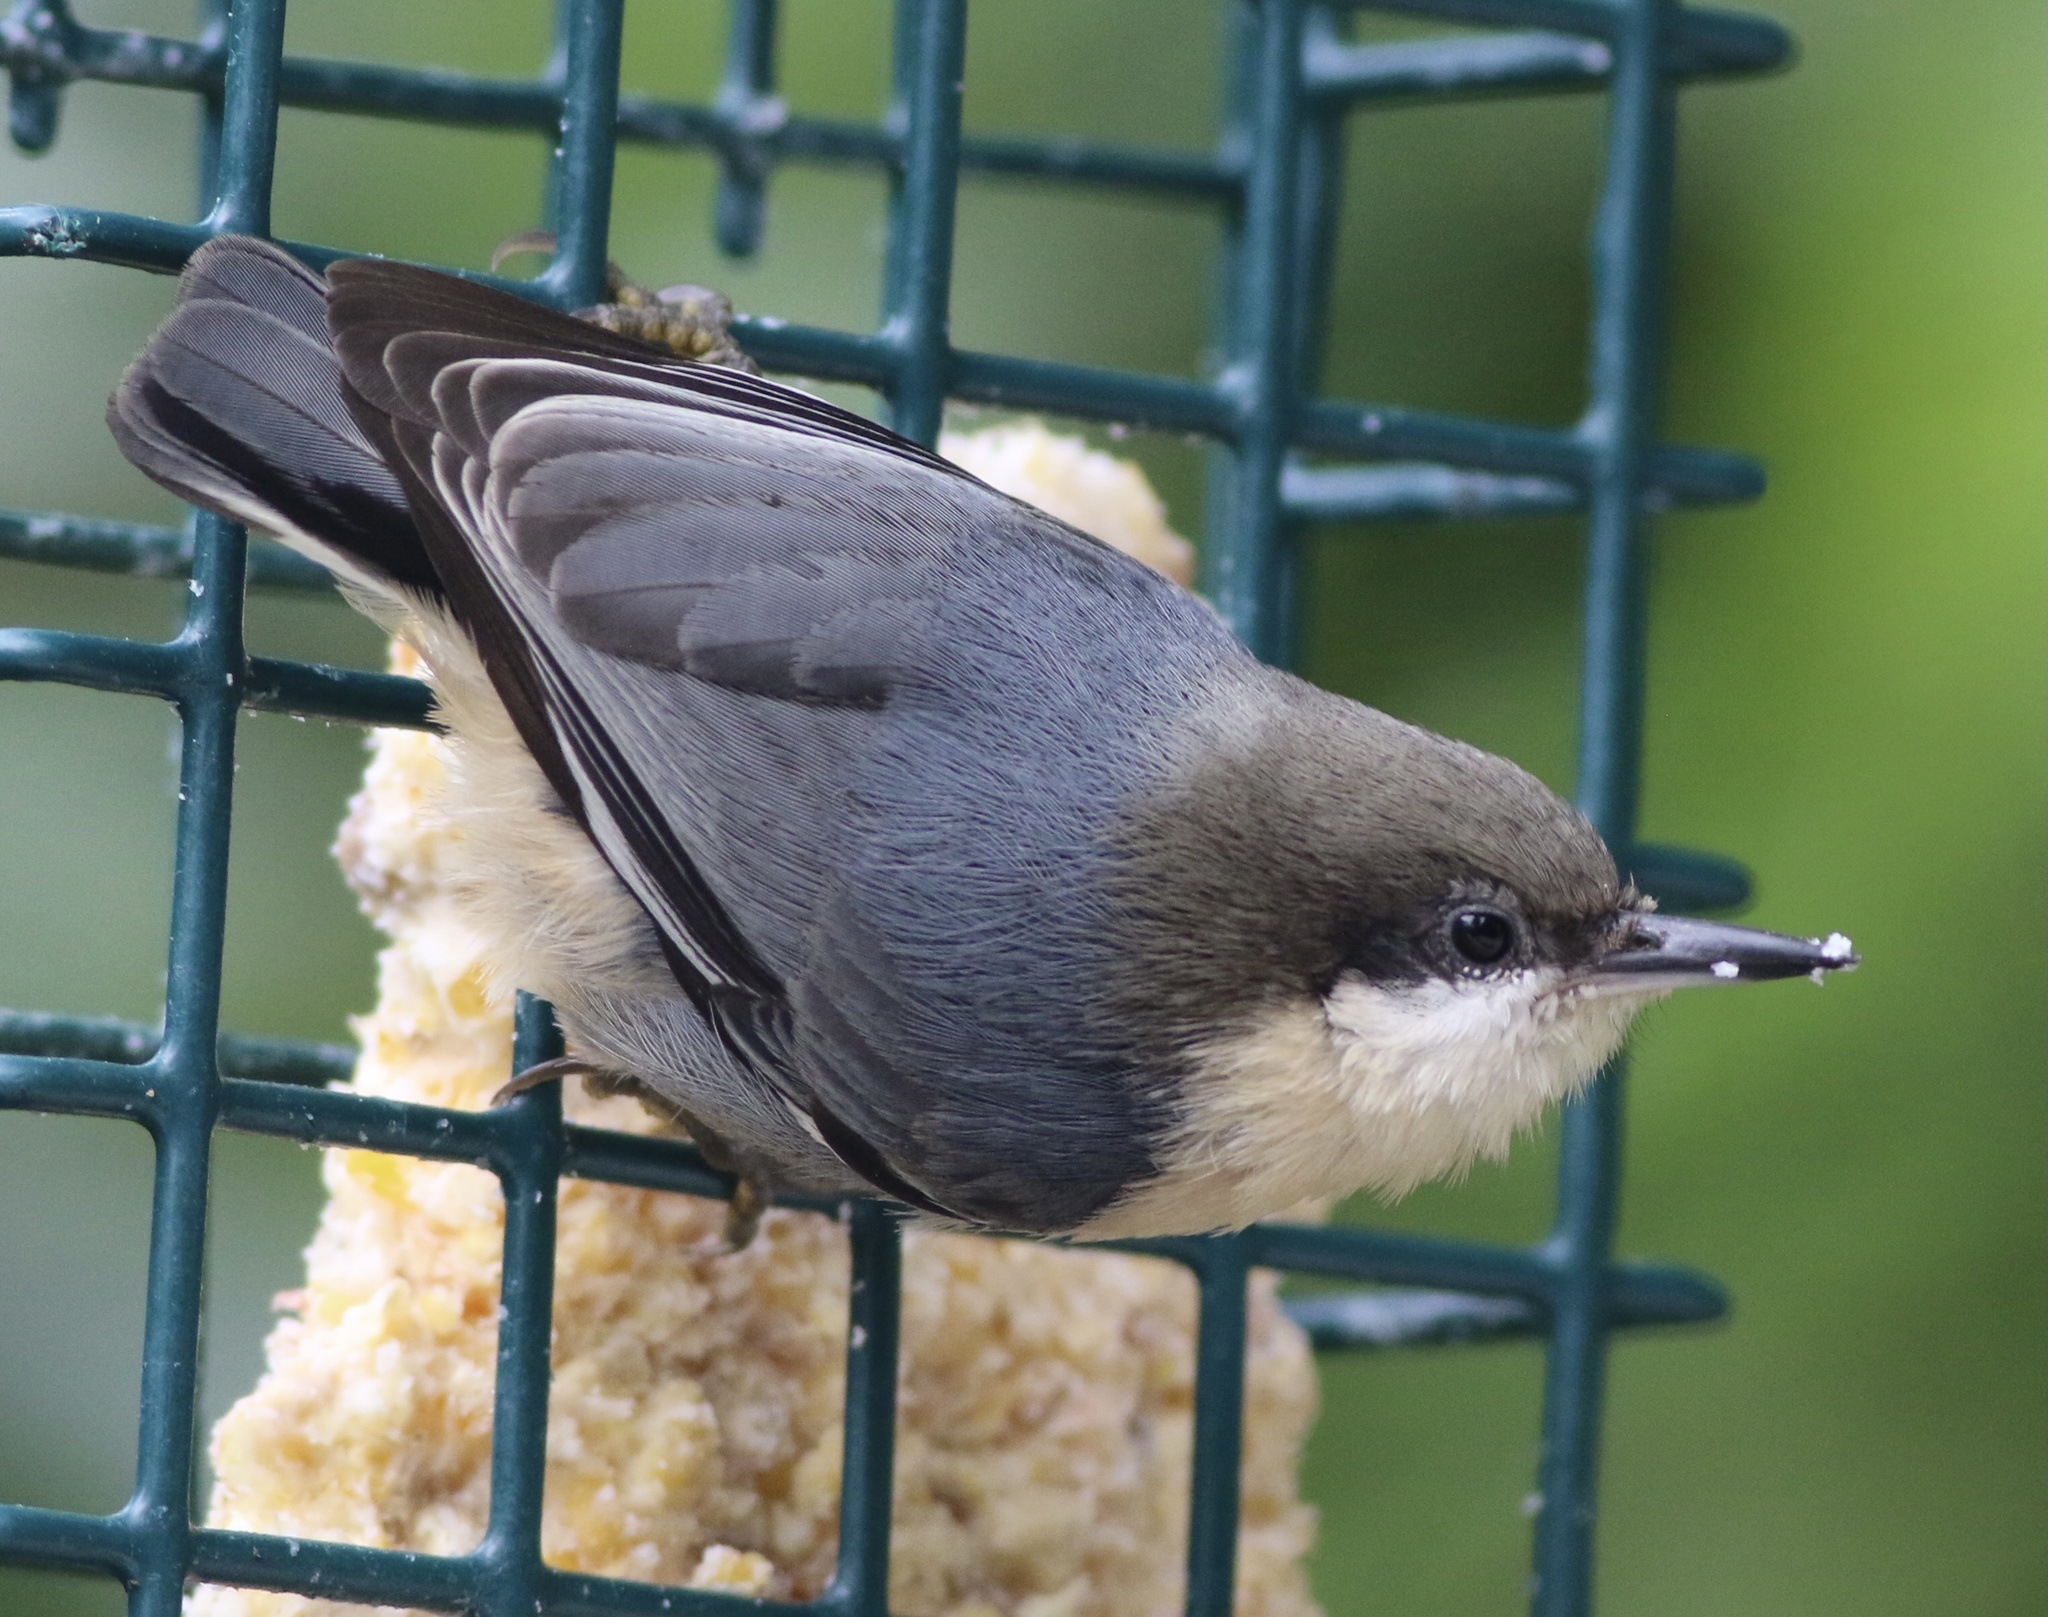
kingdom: Animalia
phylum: Chordata
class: Aves
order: Passeriformes
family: Sittidae
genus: Sitta
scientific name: Sitta pygmaea
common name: Pygmy nuthatch
